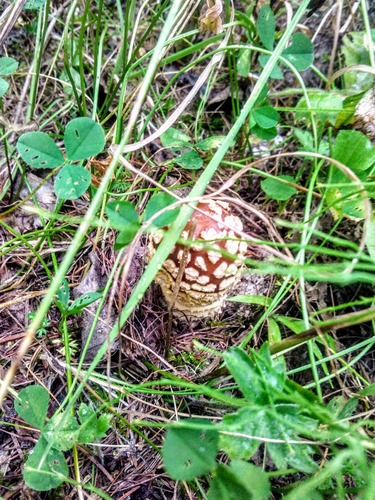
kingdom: Fungi
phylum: Basidiomycota
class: Agaricomycetes
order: Agaricales
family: Amanitaceae
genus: Amanita
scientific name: Amanita regalis
